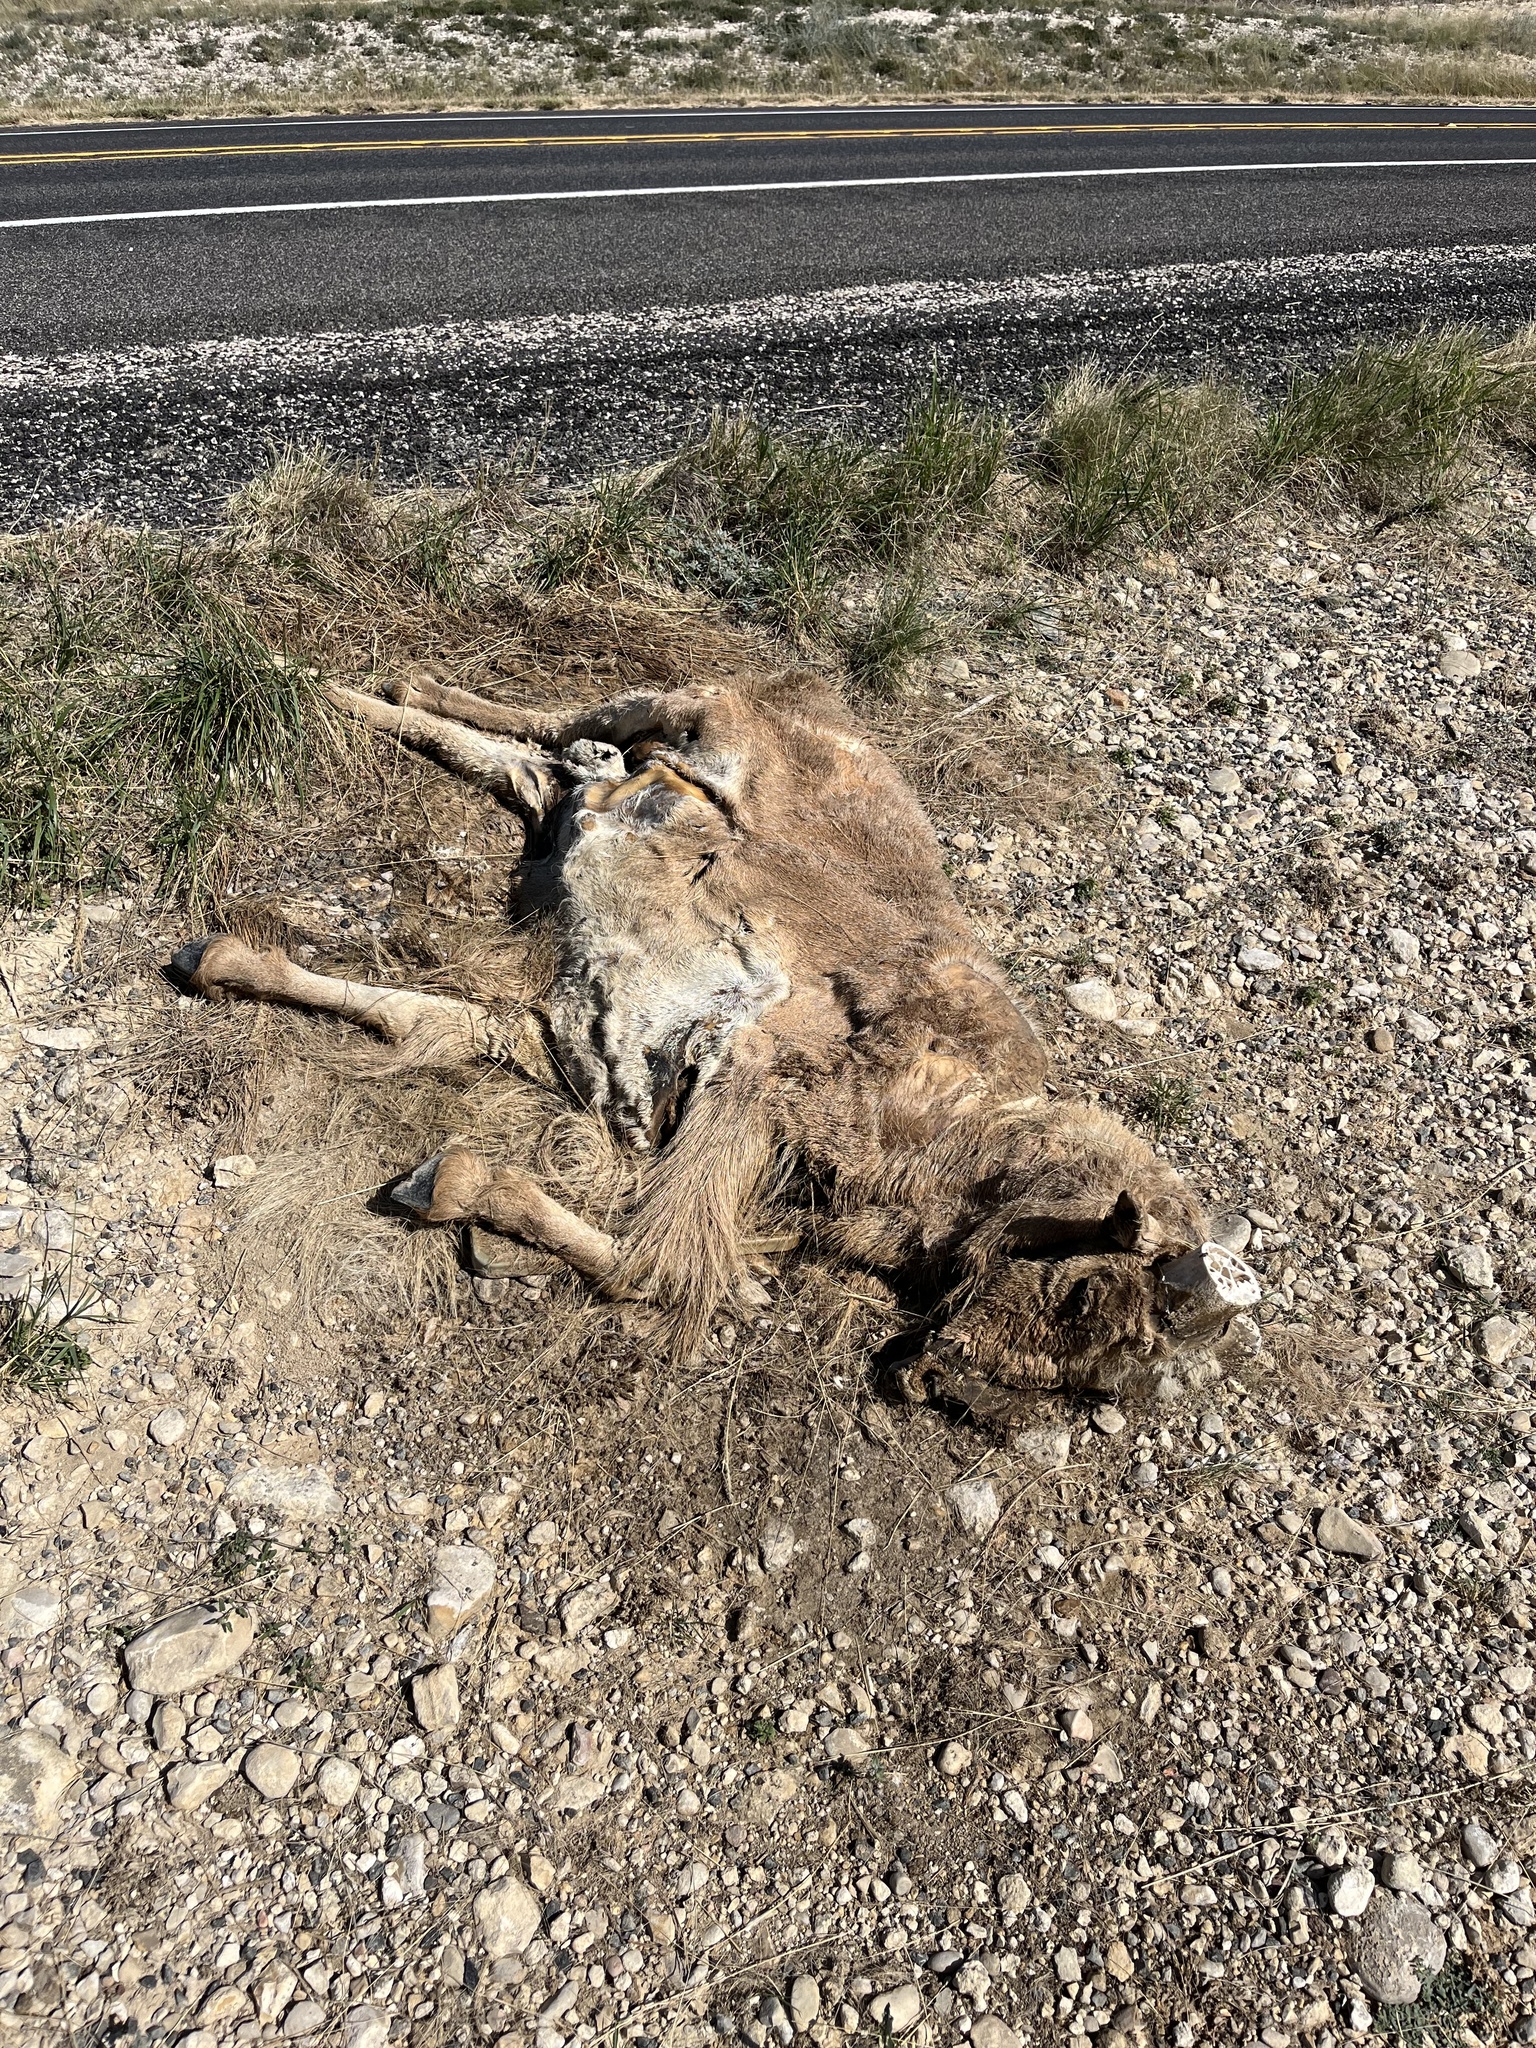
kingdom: Animalia
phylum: Chordata
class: Mammalia
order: Artiodactyla
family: Bovidae
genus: Ammotragus
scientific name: Ammotragus lervia
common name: Barbary sheep
